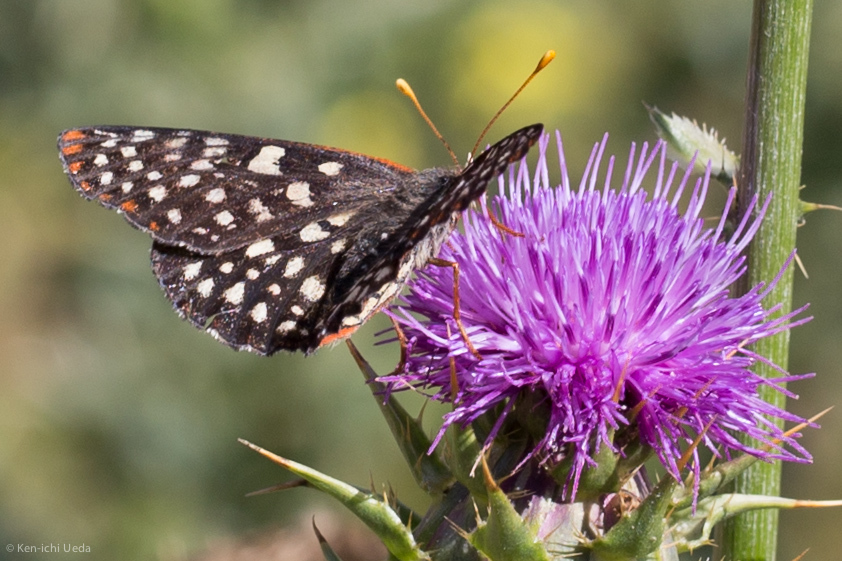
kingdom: Animalia
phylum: Arthropoda
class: Insecta
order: Lepidoptera
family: Nymphalidae
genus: Occidryas
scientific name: Occidryas chalcedona
